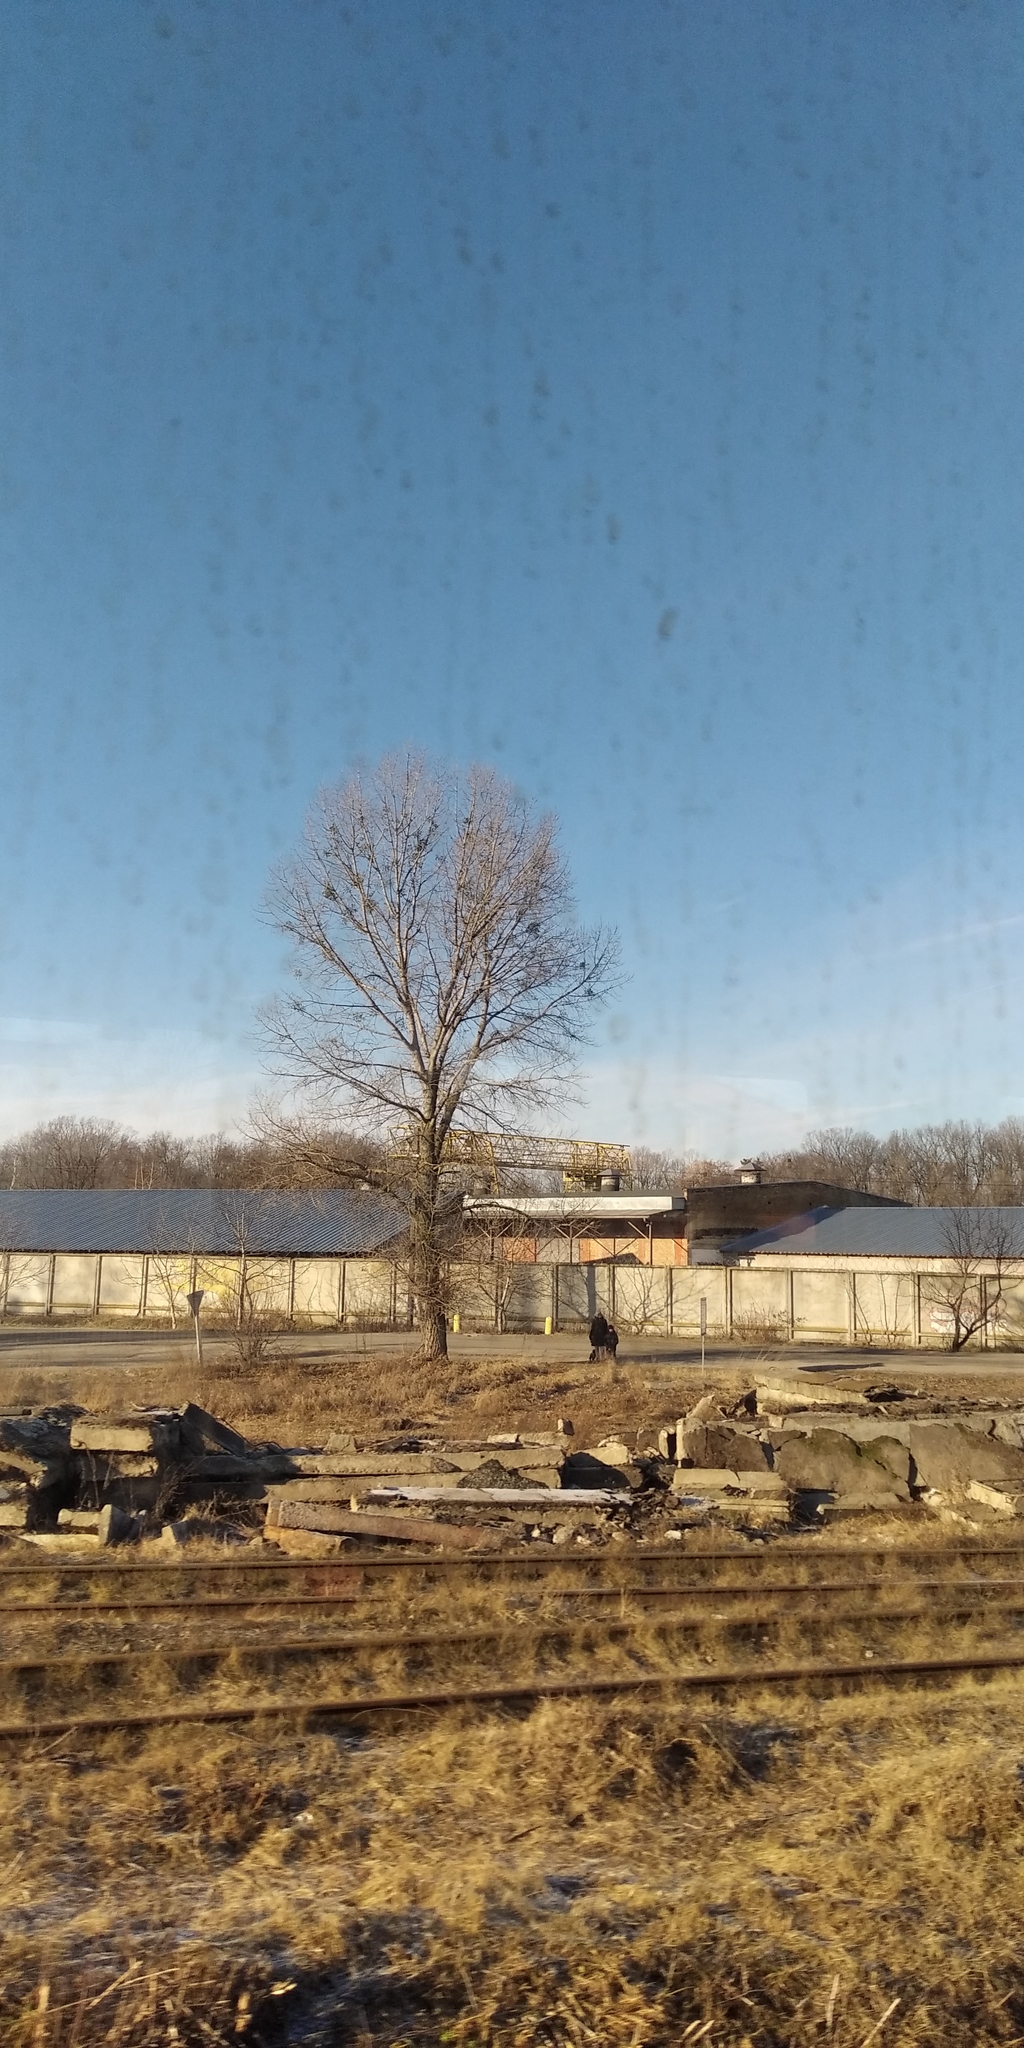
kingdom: Plantae
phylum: Tracheophyta
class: Magnoliopsida
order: Santalales
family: Viscaceae
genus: Viscum
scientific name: Viscum album
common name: Mistletoe
